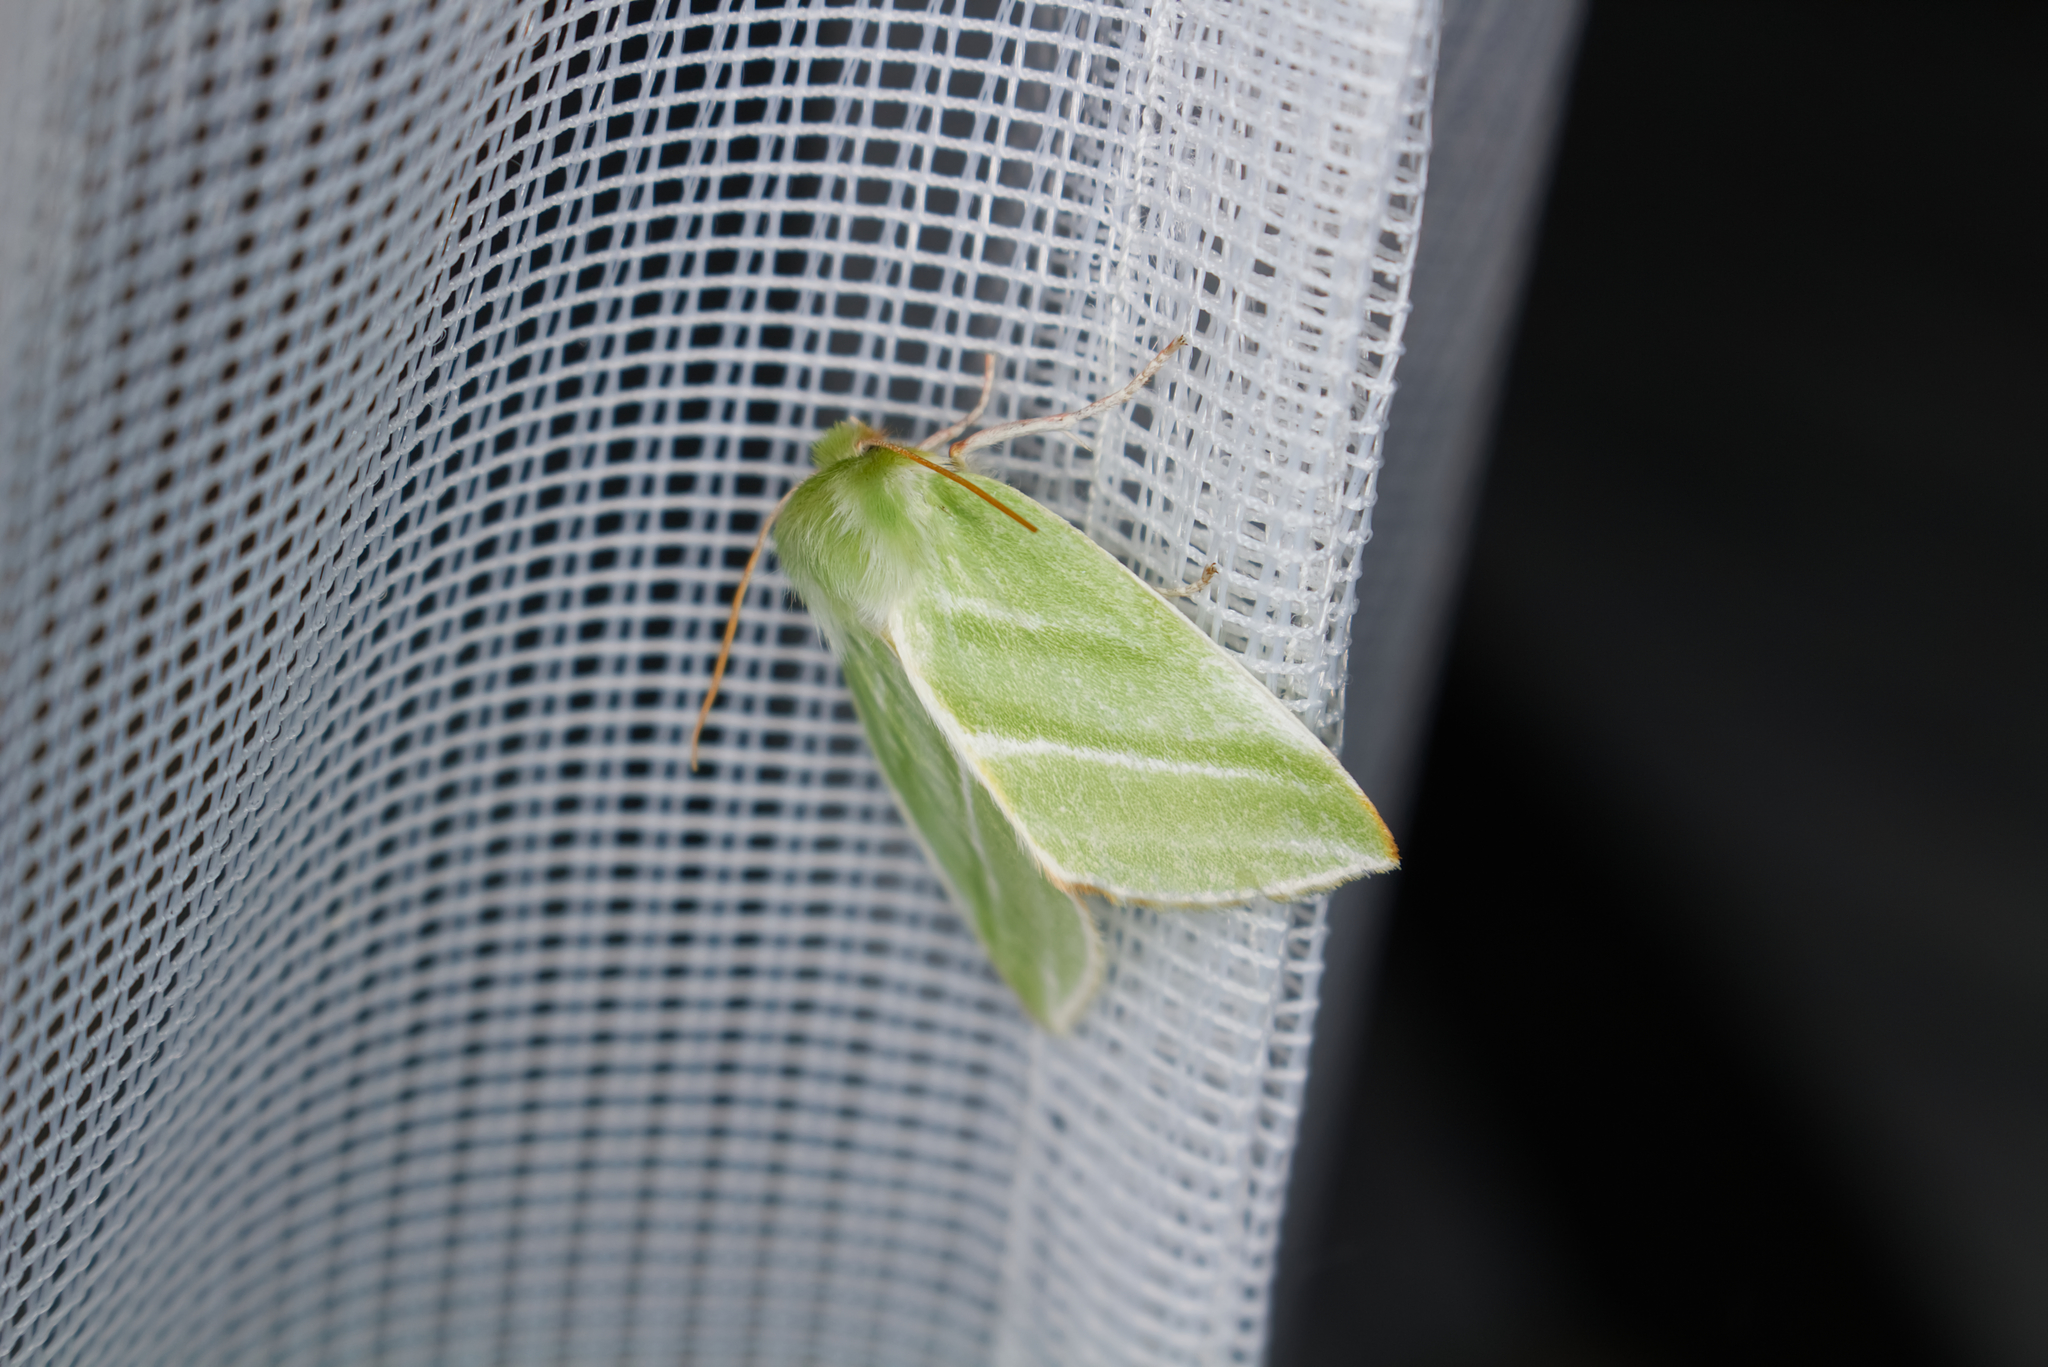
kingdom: Animalia
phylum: Arthropoda
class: Insecta
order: Lepidoptera
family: Nolidae
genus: Pseudoips
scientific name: Pseudoips prasinana
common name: Green silver-lines
